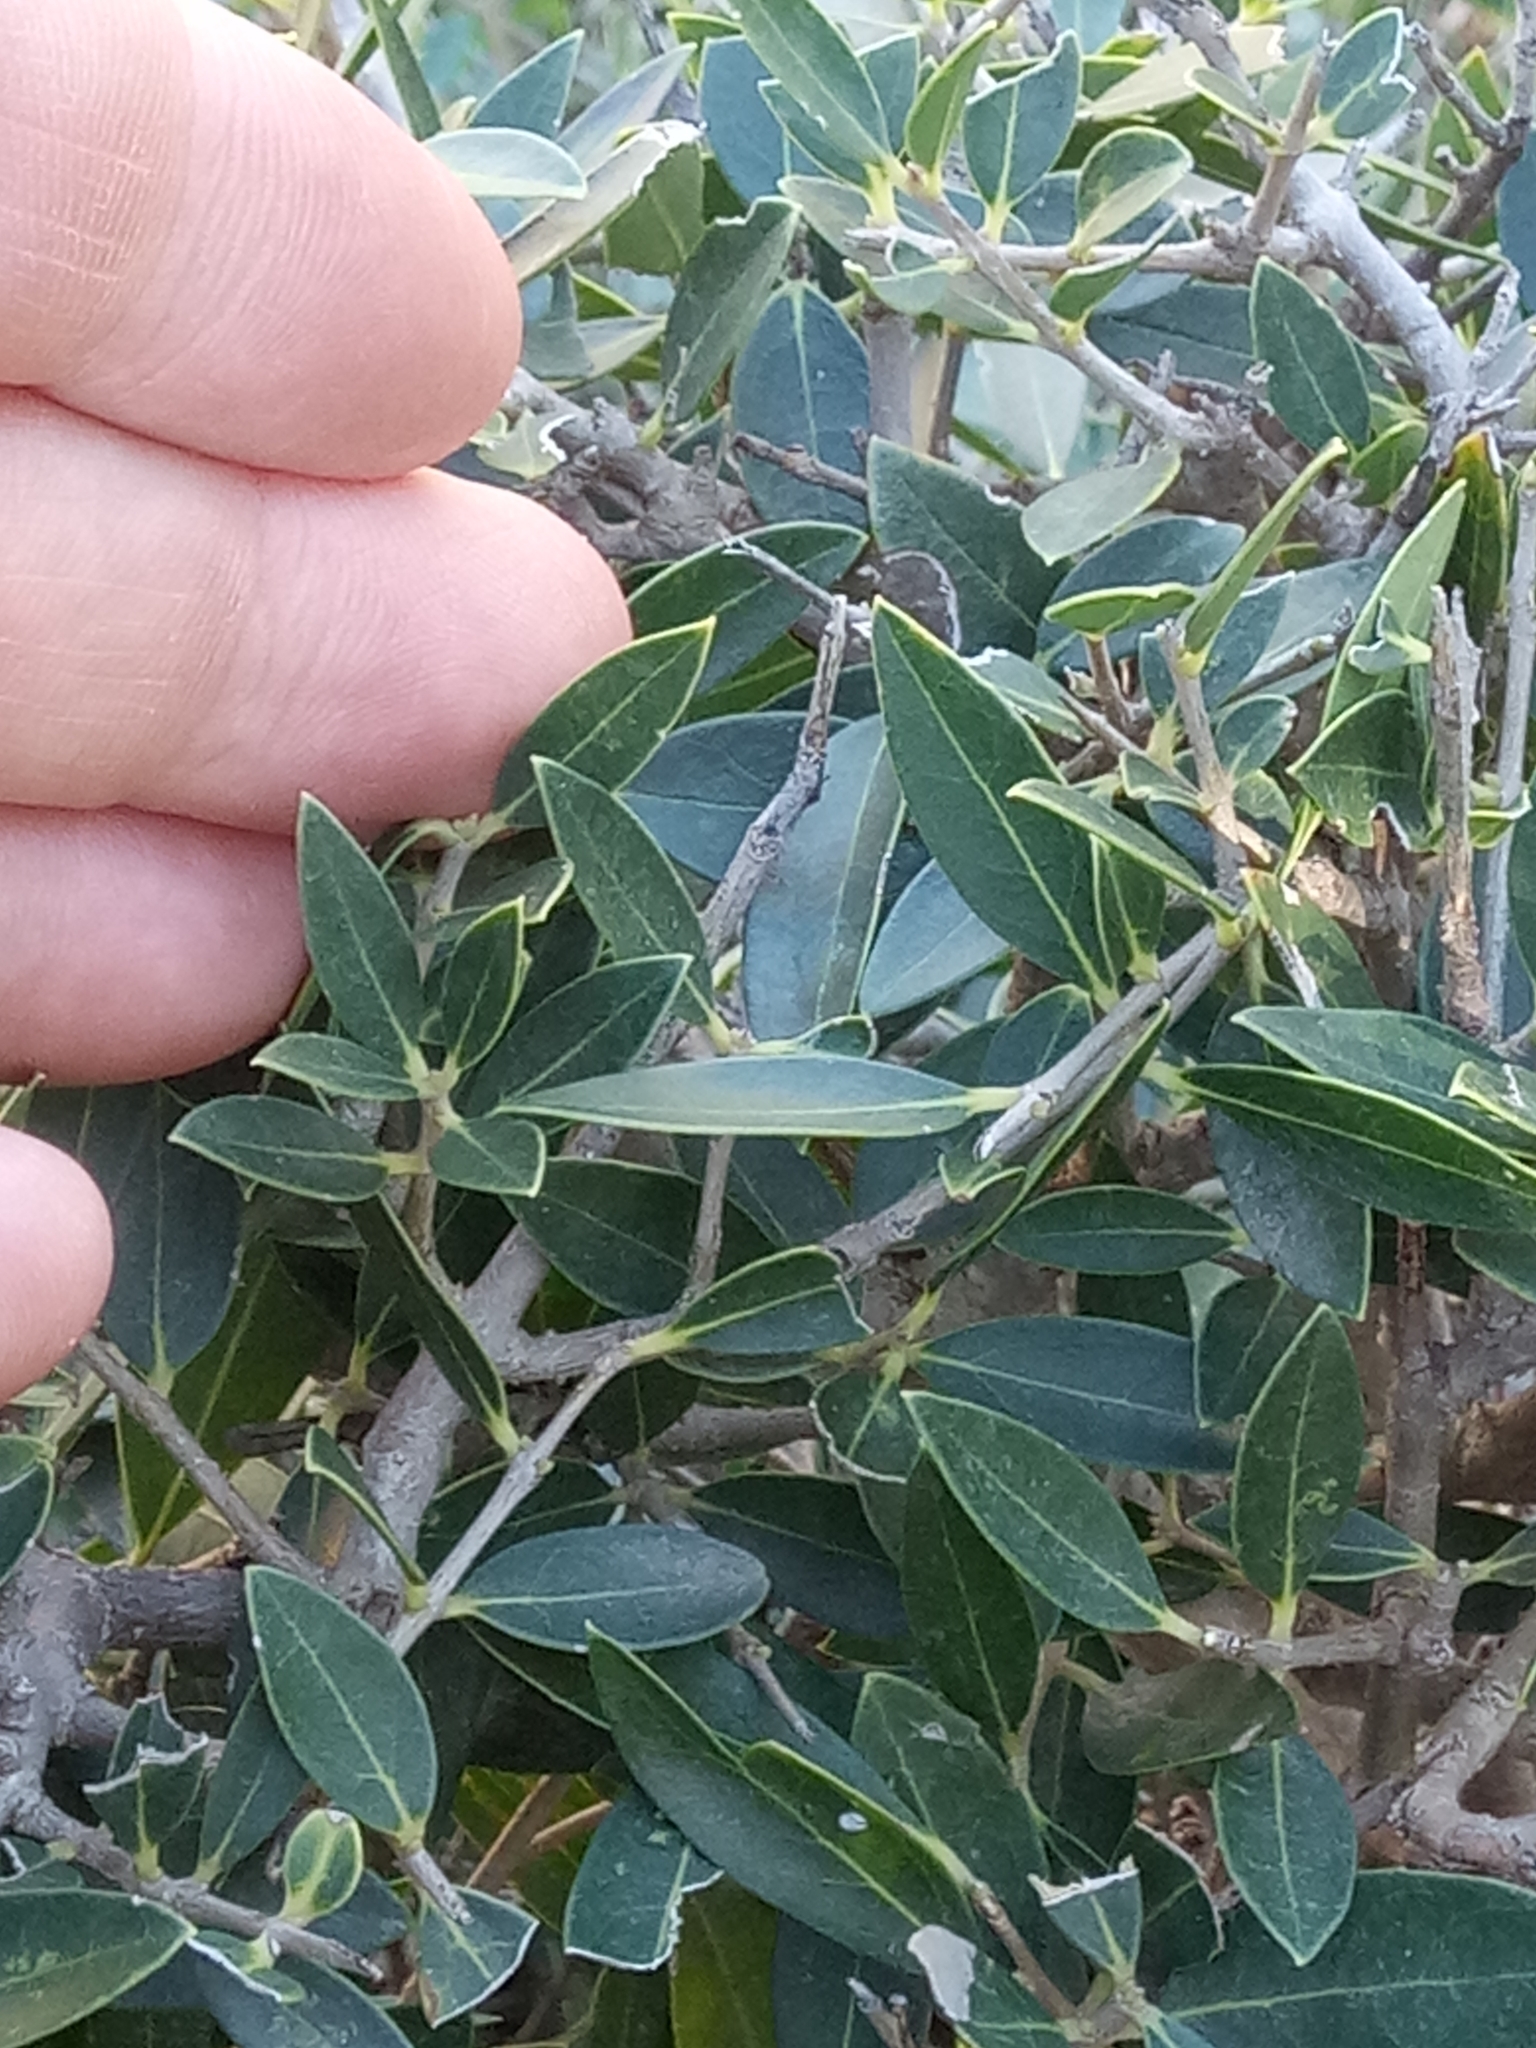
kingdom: Plantae
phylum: Tracheophyta
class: Magnoliopsida
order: Lamiales
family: Oleaceae
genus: Phillyrea
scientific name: Phillyrea latifolia
